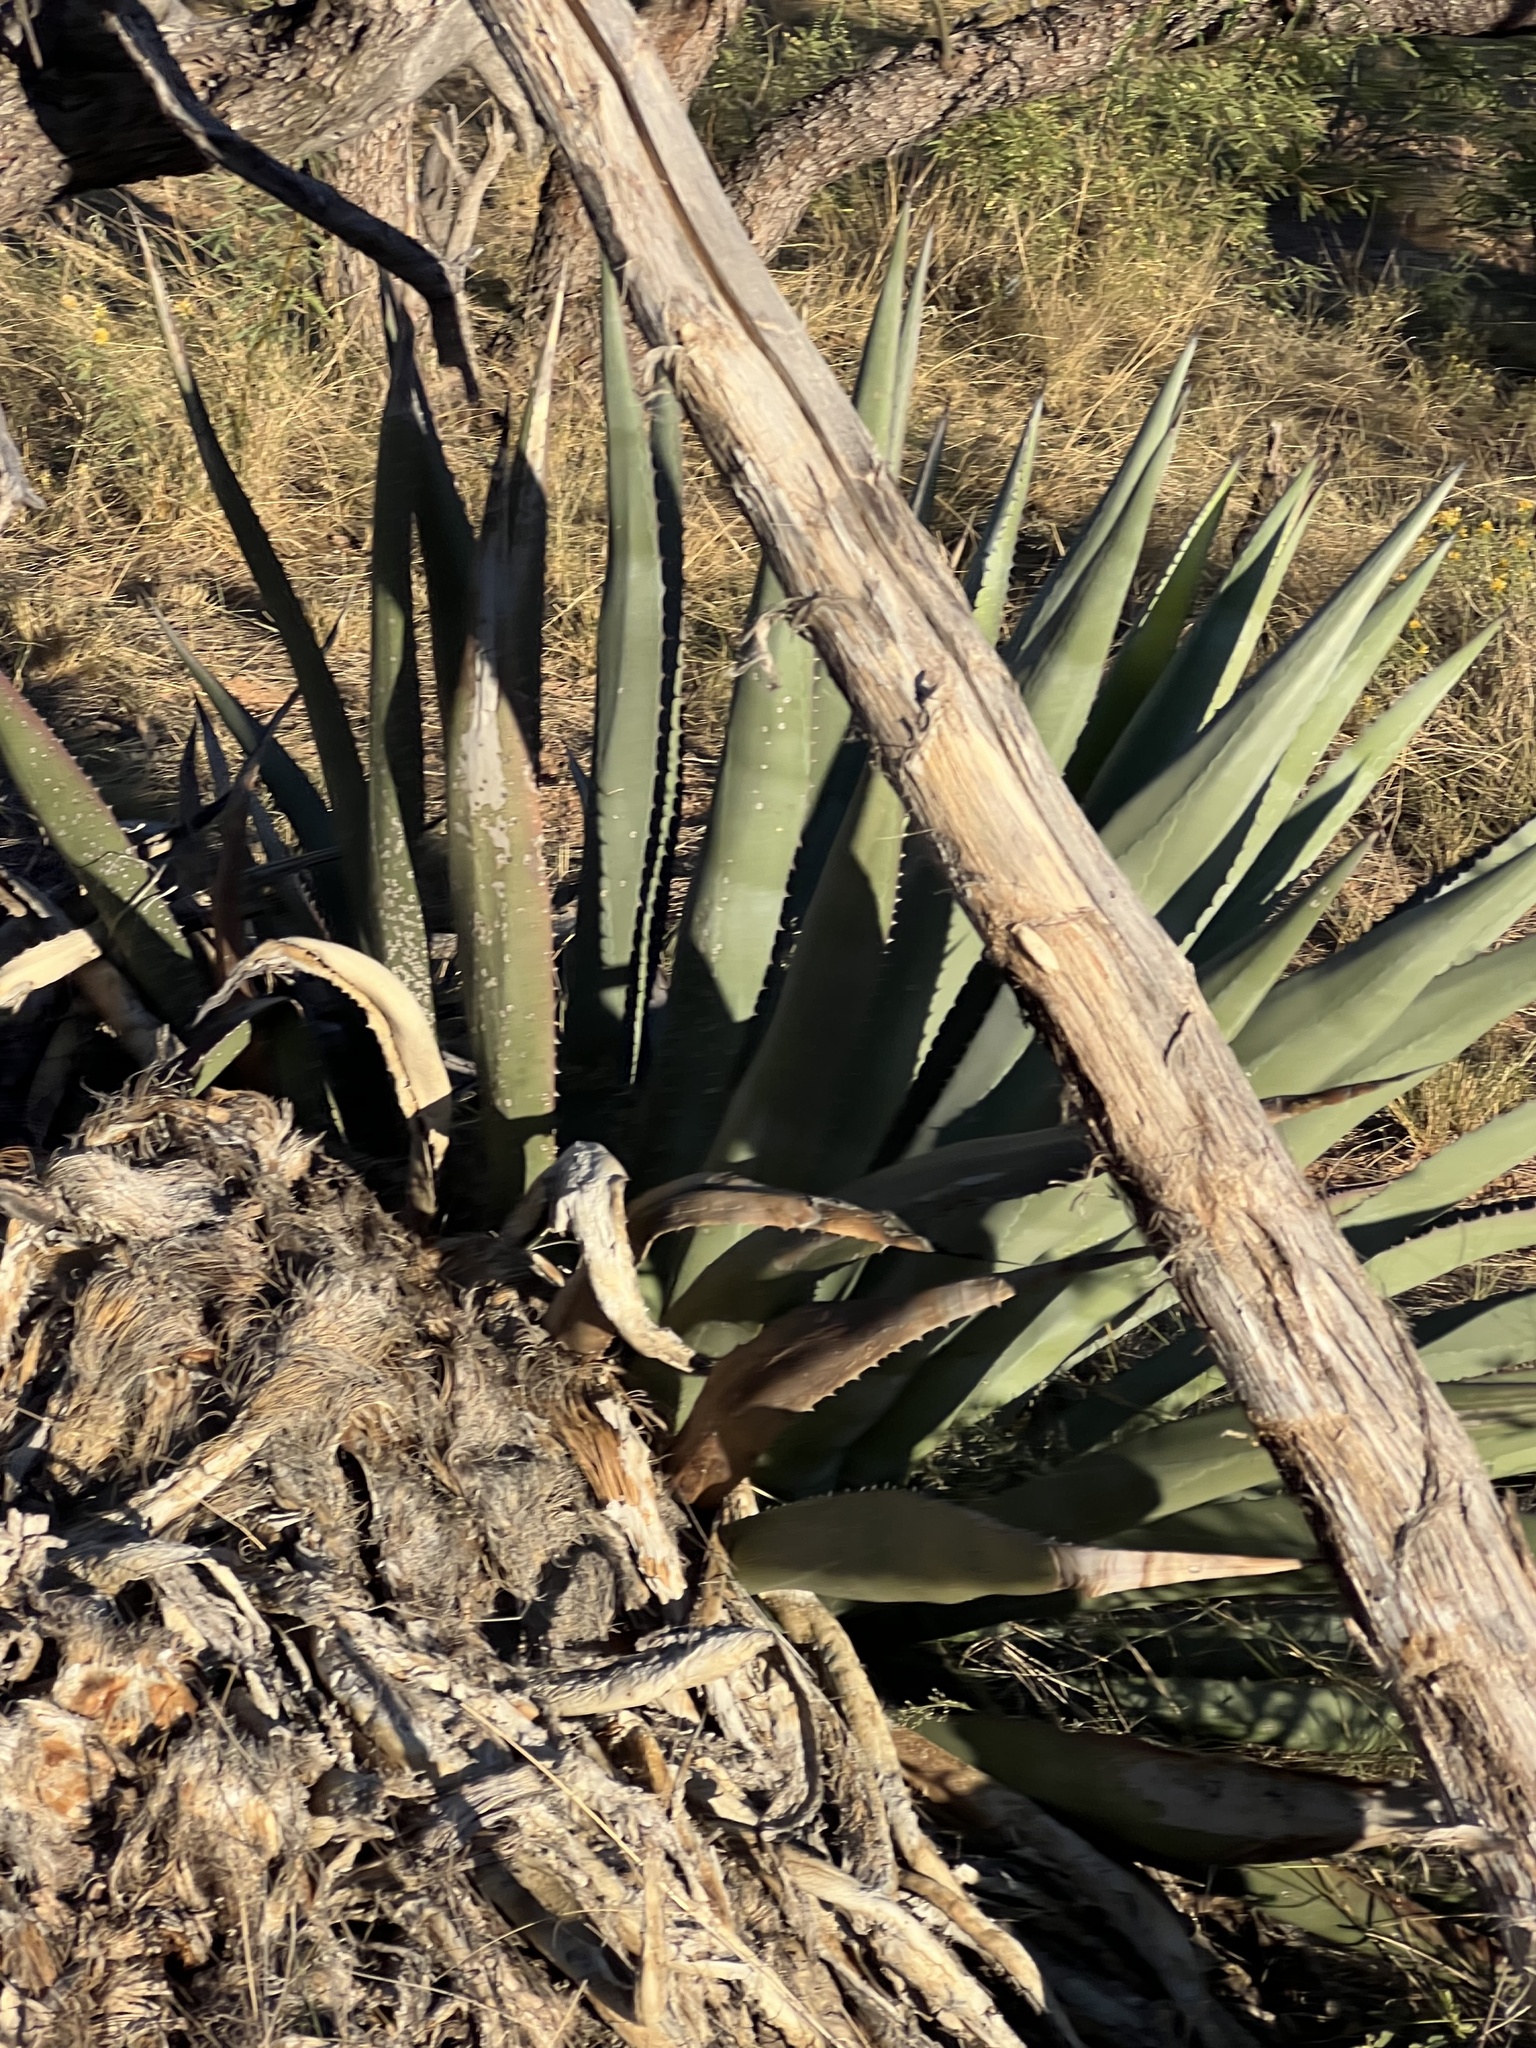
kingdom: Plantae
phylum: Tracheophyta
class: Liliopsida
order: Asparagales
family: Asparagaceae
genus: Agave
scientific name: Agave palmeri
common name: Palmer agave
